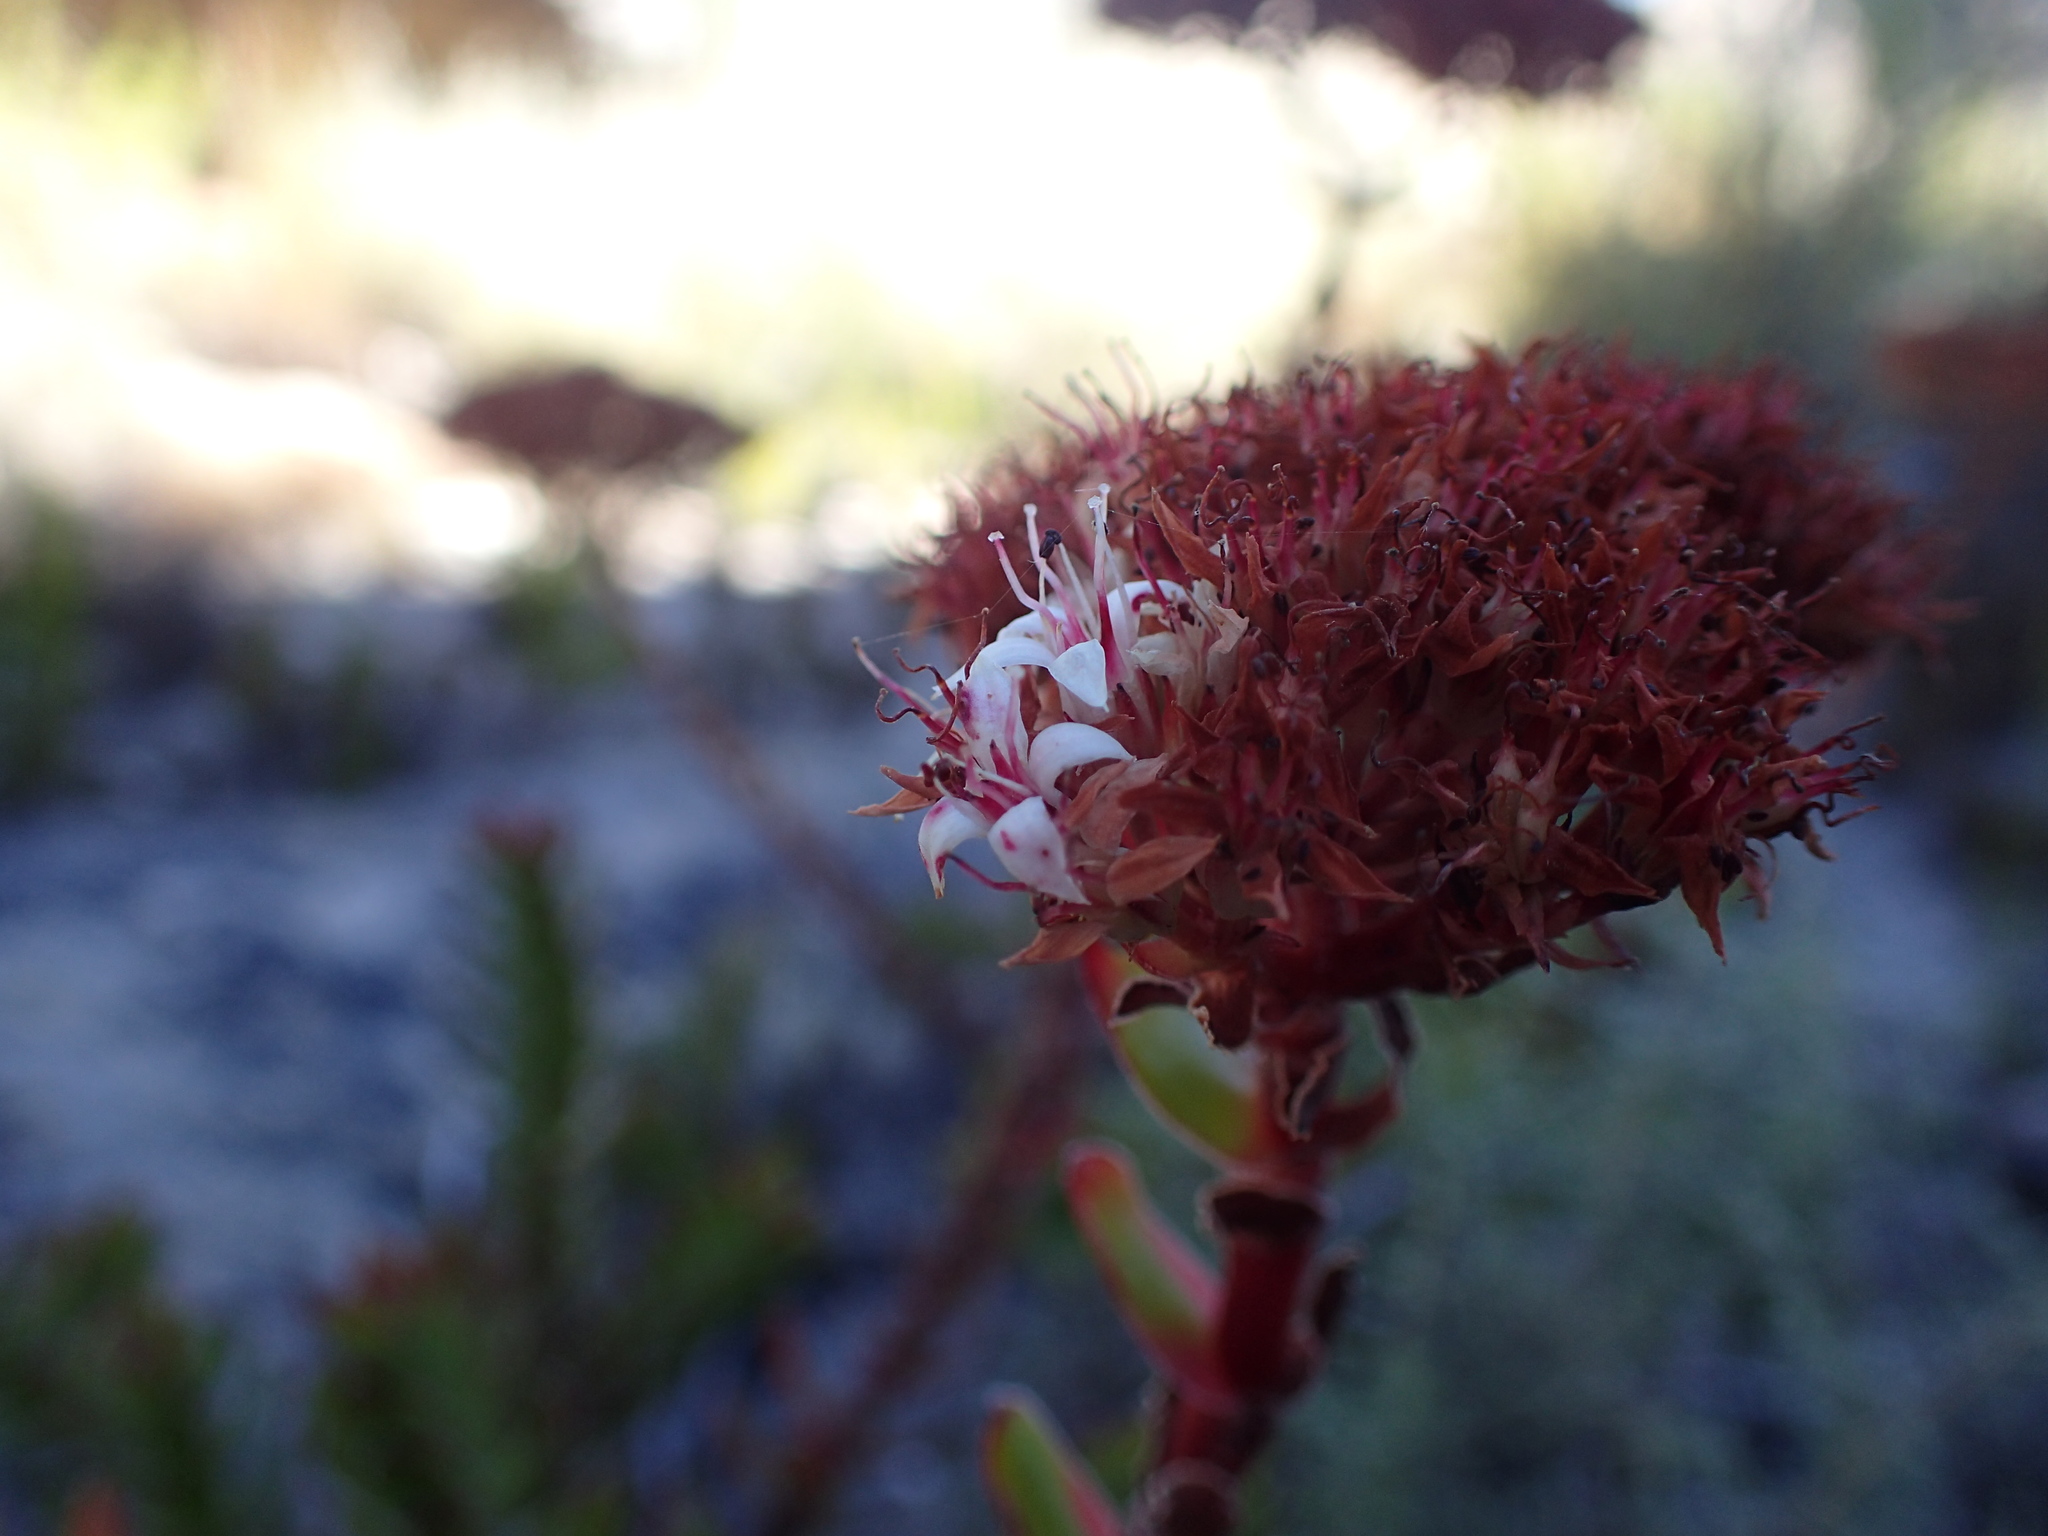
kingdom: Plantae
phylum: Tracheophyta
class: Magnoliopsida
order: Saxifragales
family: Crassulaceae
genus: Crassula
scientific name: Crassula undulata
